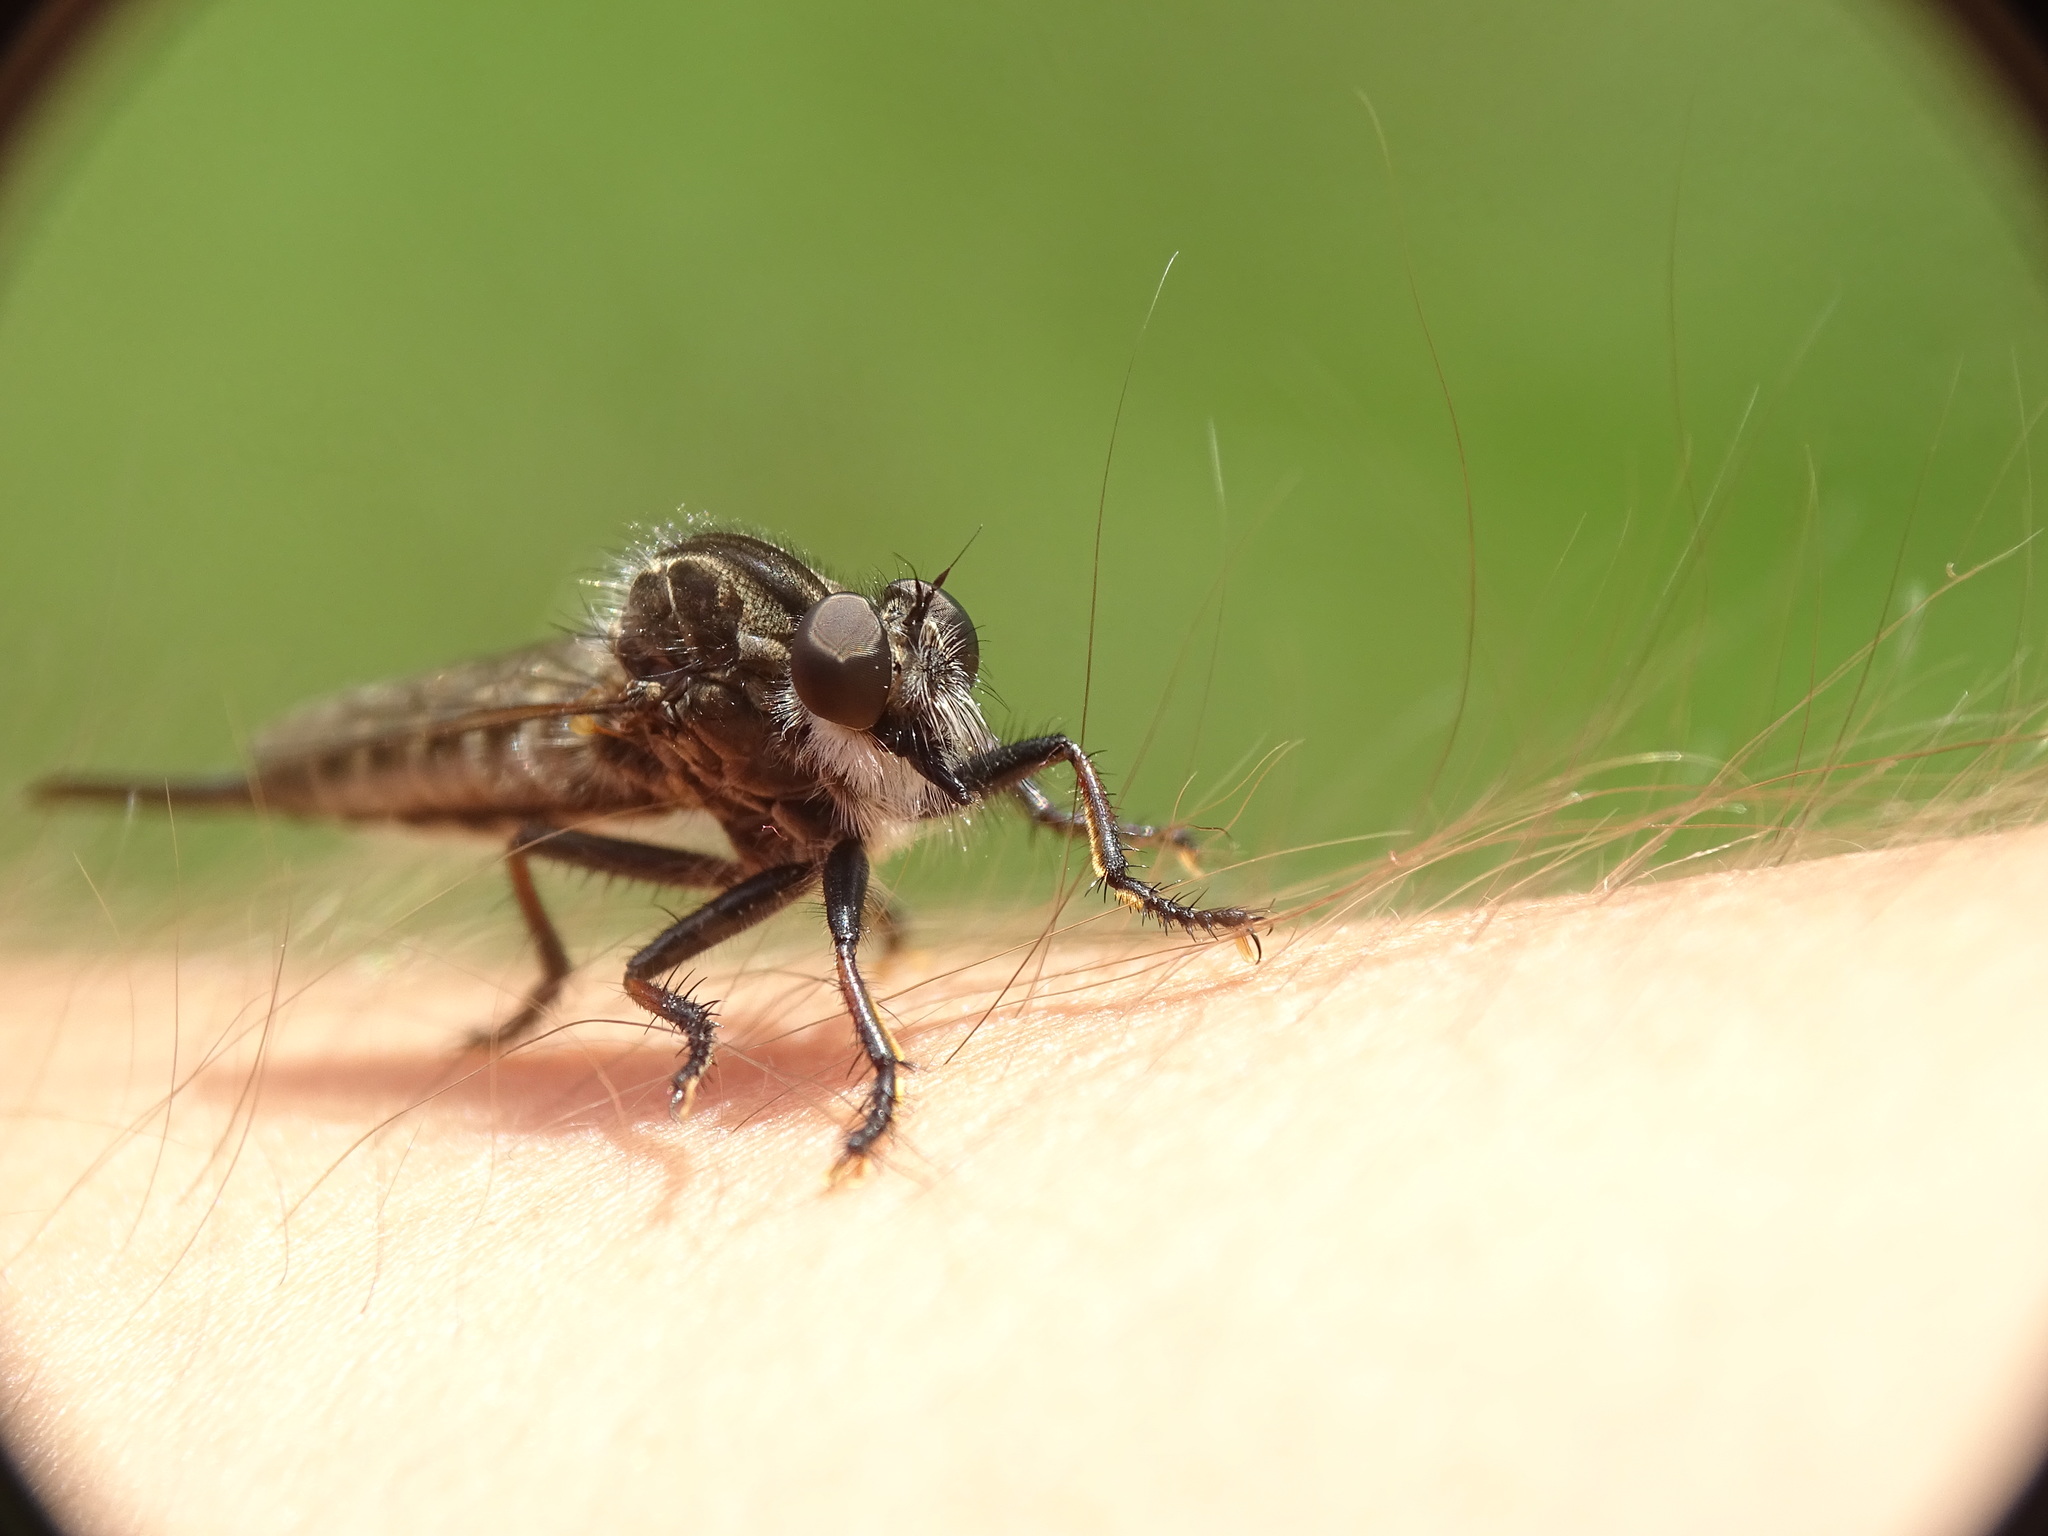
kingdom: Animalia
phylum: Arthropoda
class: Insecta
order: Diptera
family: Asilidae
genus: Efferia
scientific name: Efferia aestuans
